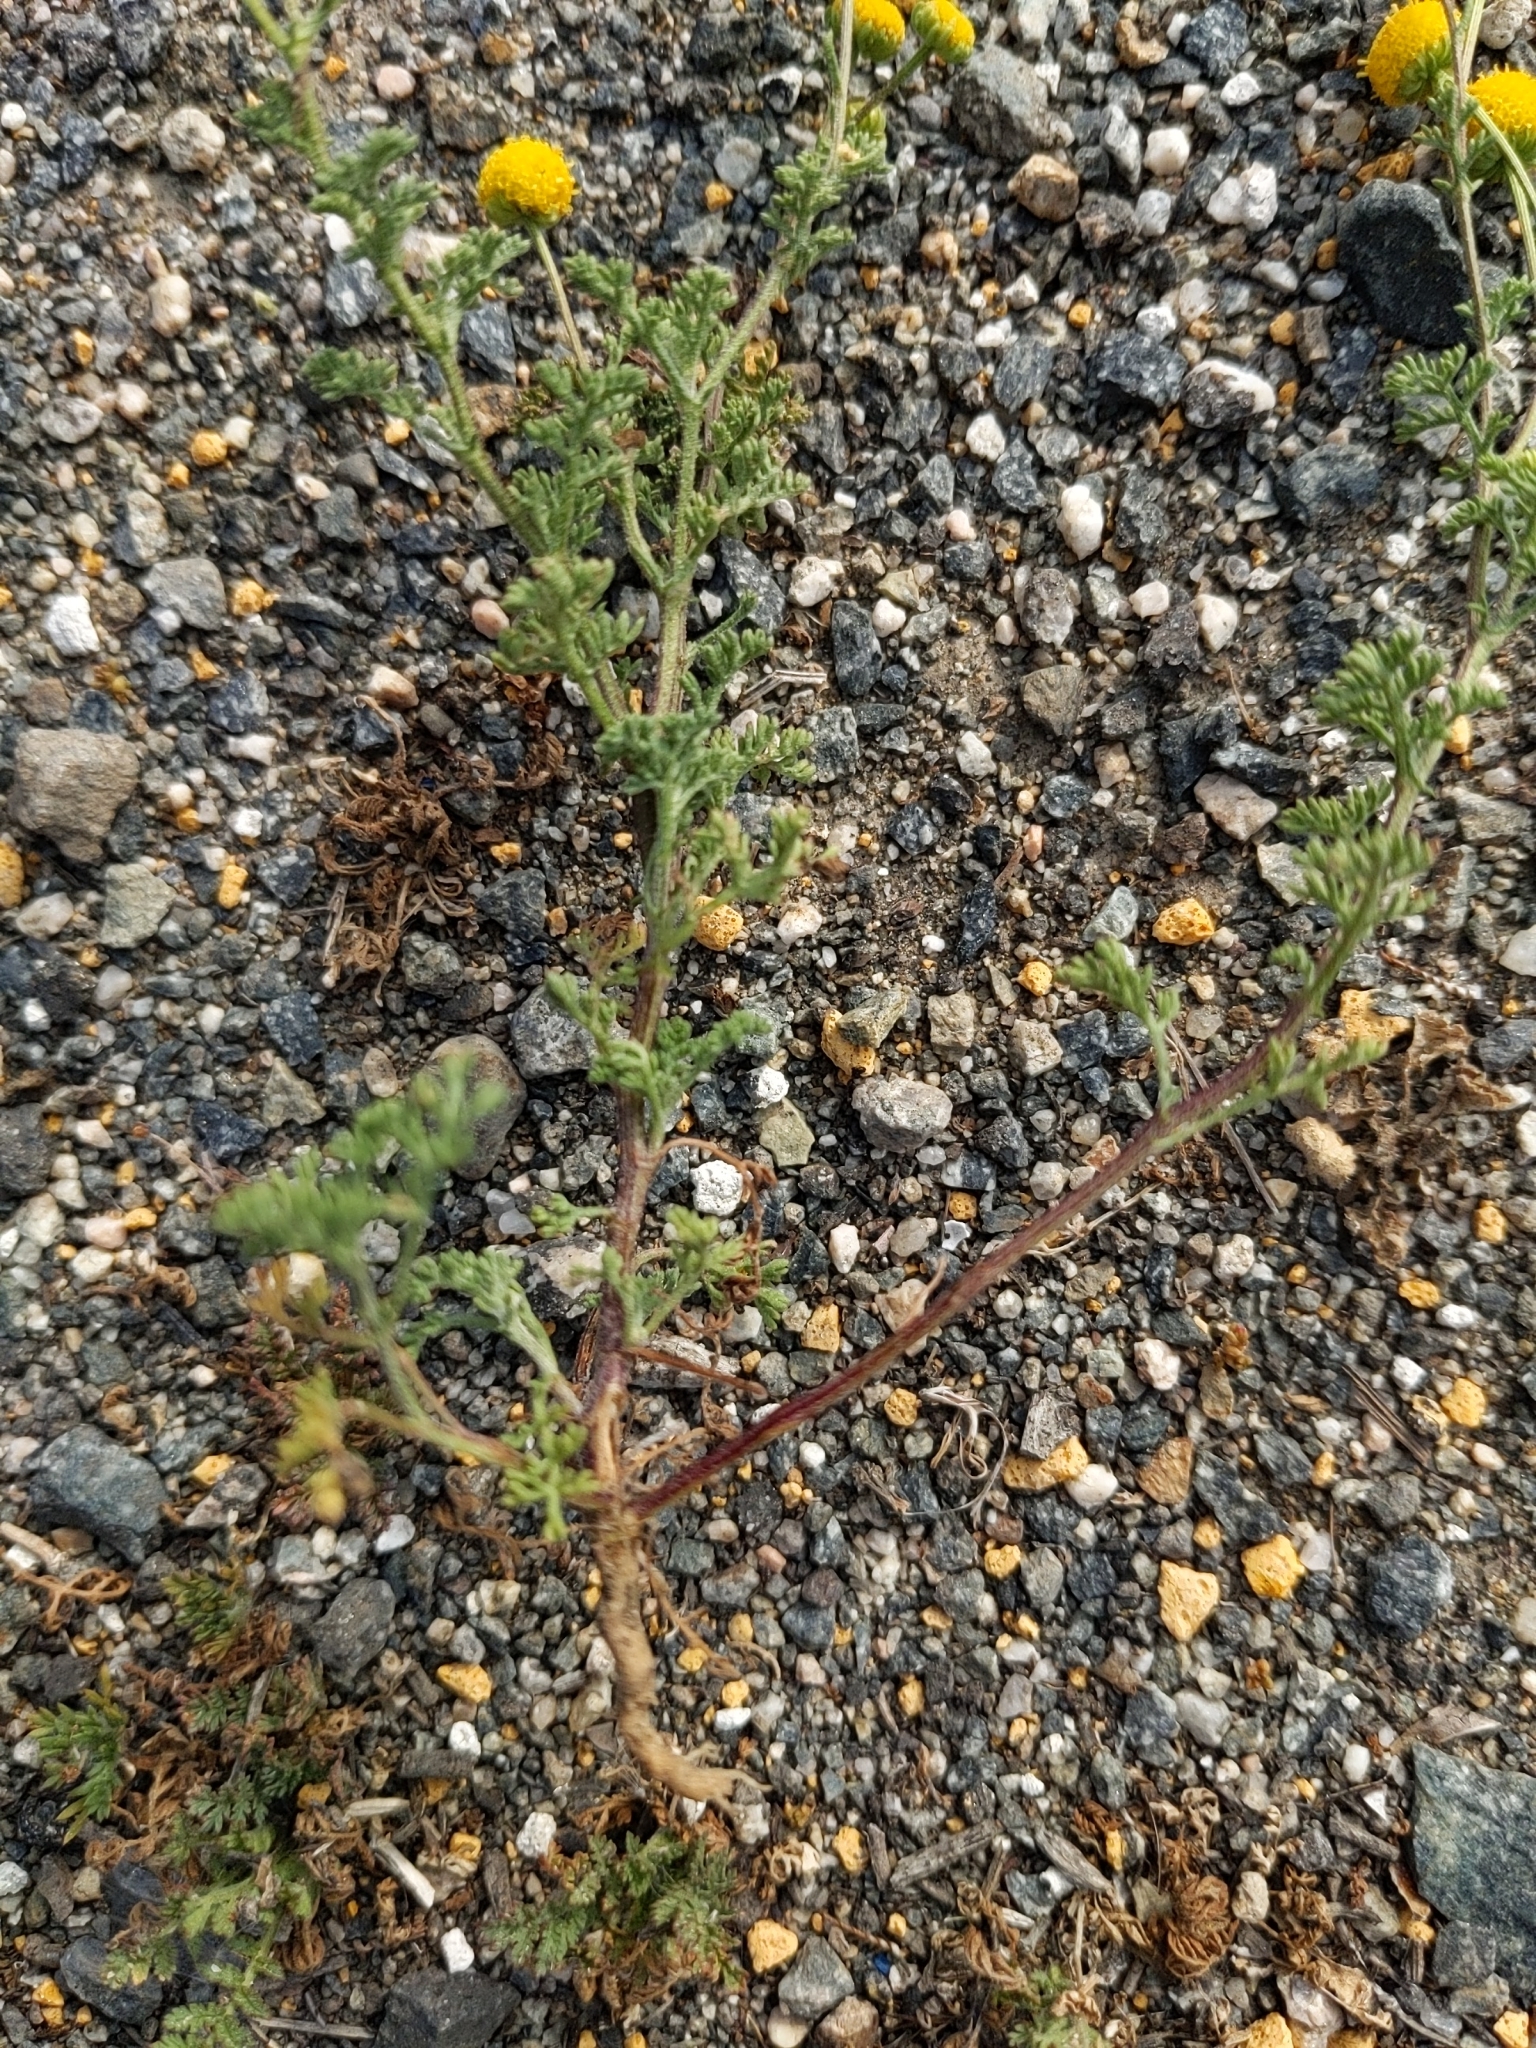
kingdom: Plantae
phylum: Tracheophyta
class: Magnoliopsida
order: Asterales
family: Asteraceae
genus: Oncosiphon
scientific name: Oncosiphon pilulifer
